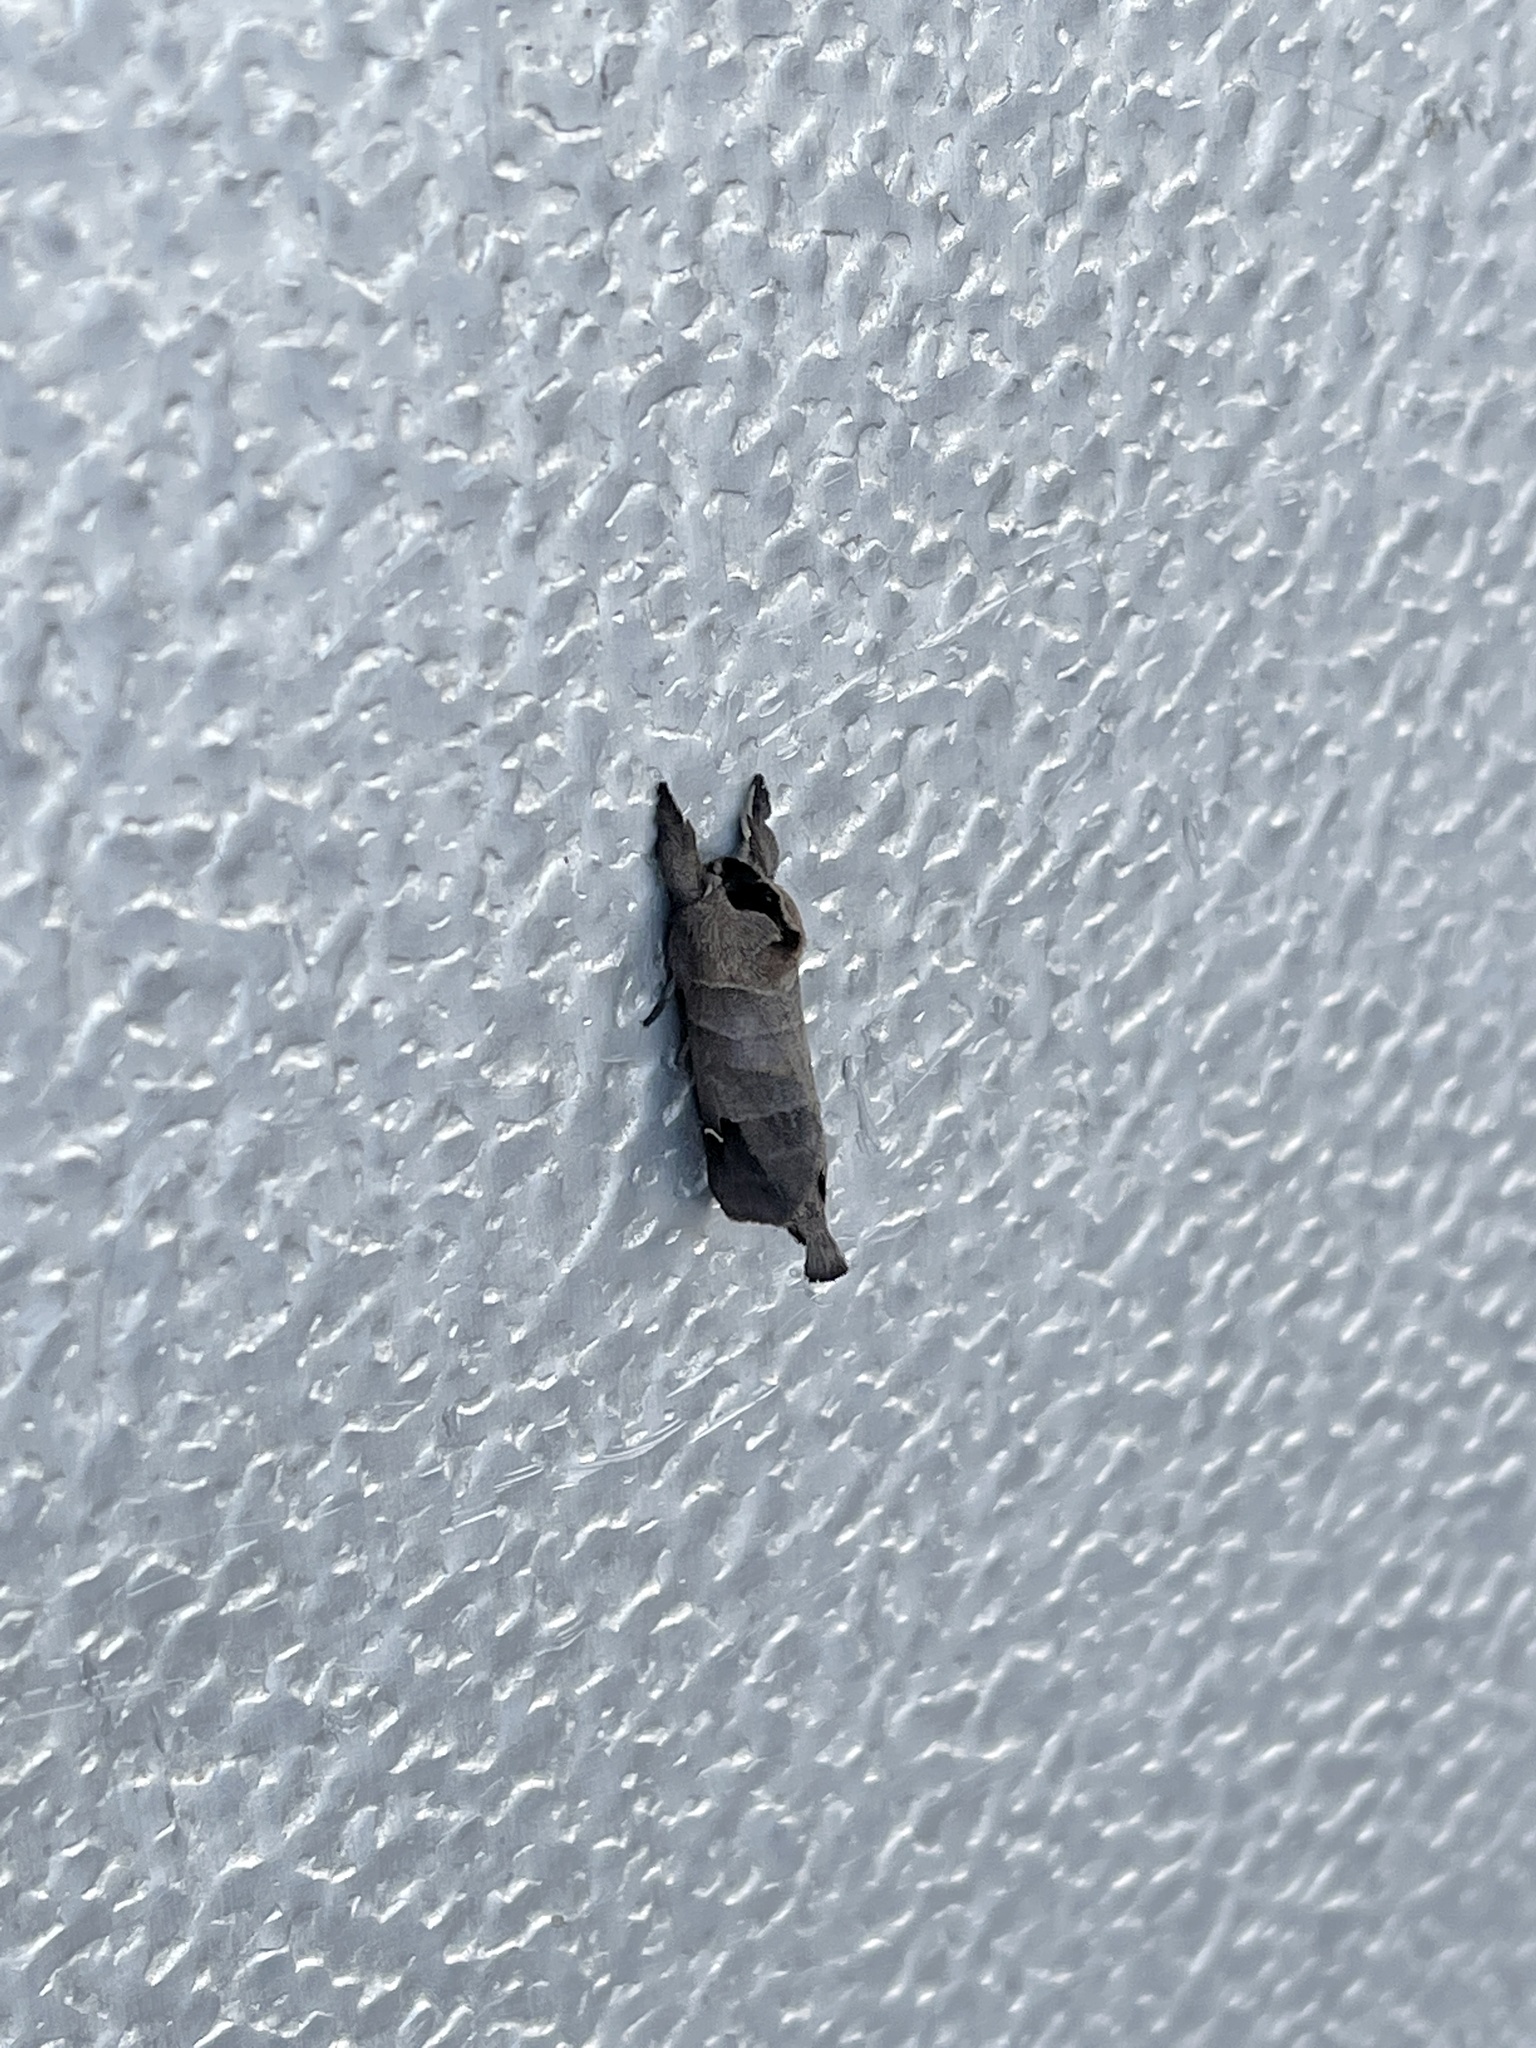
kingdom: Animalia
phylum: Arthropoda
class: Insecta
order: Lepidoptera
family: Notodontidae
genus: Clostera
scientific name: Clostera albosigma
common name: Sigmoid prominent
